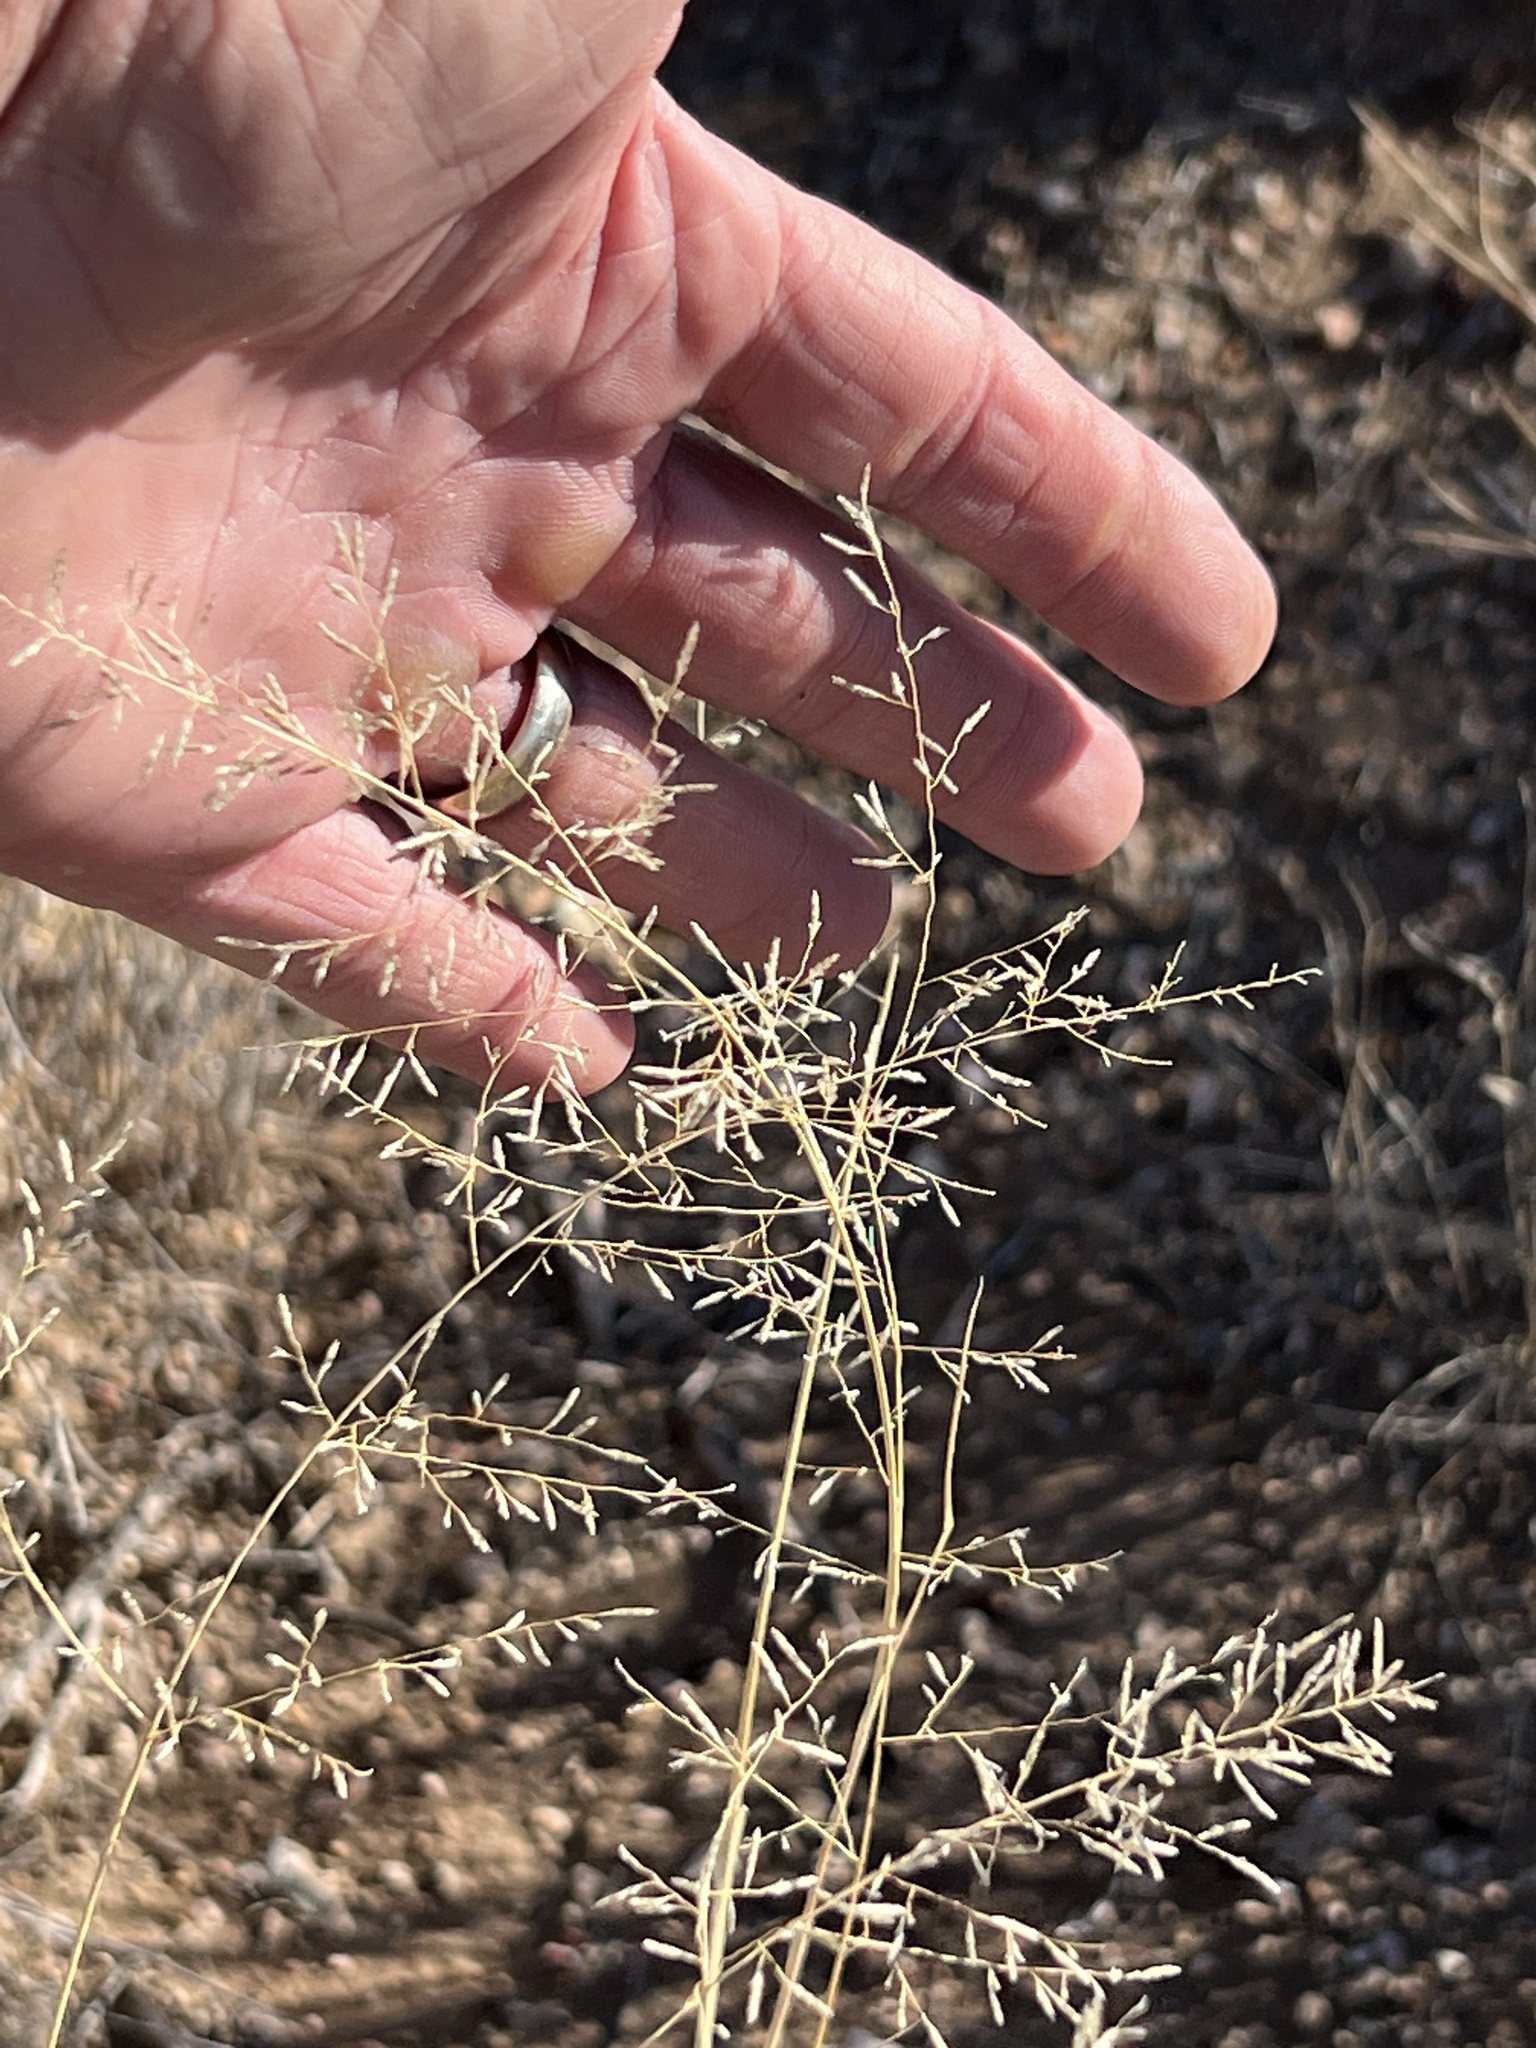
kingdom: Plantae
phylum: Tracheophyta
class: Liliopsida
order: Poales
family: Poaceae
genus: Eragrostis
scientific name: Eragrostis lehmanniana
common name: Lehmann lovegrass
